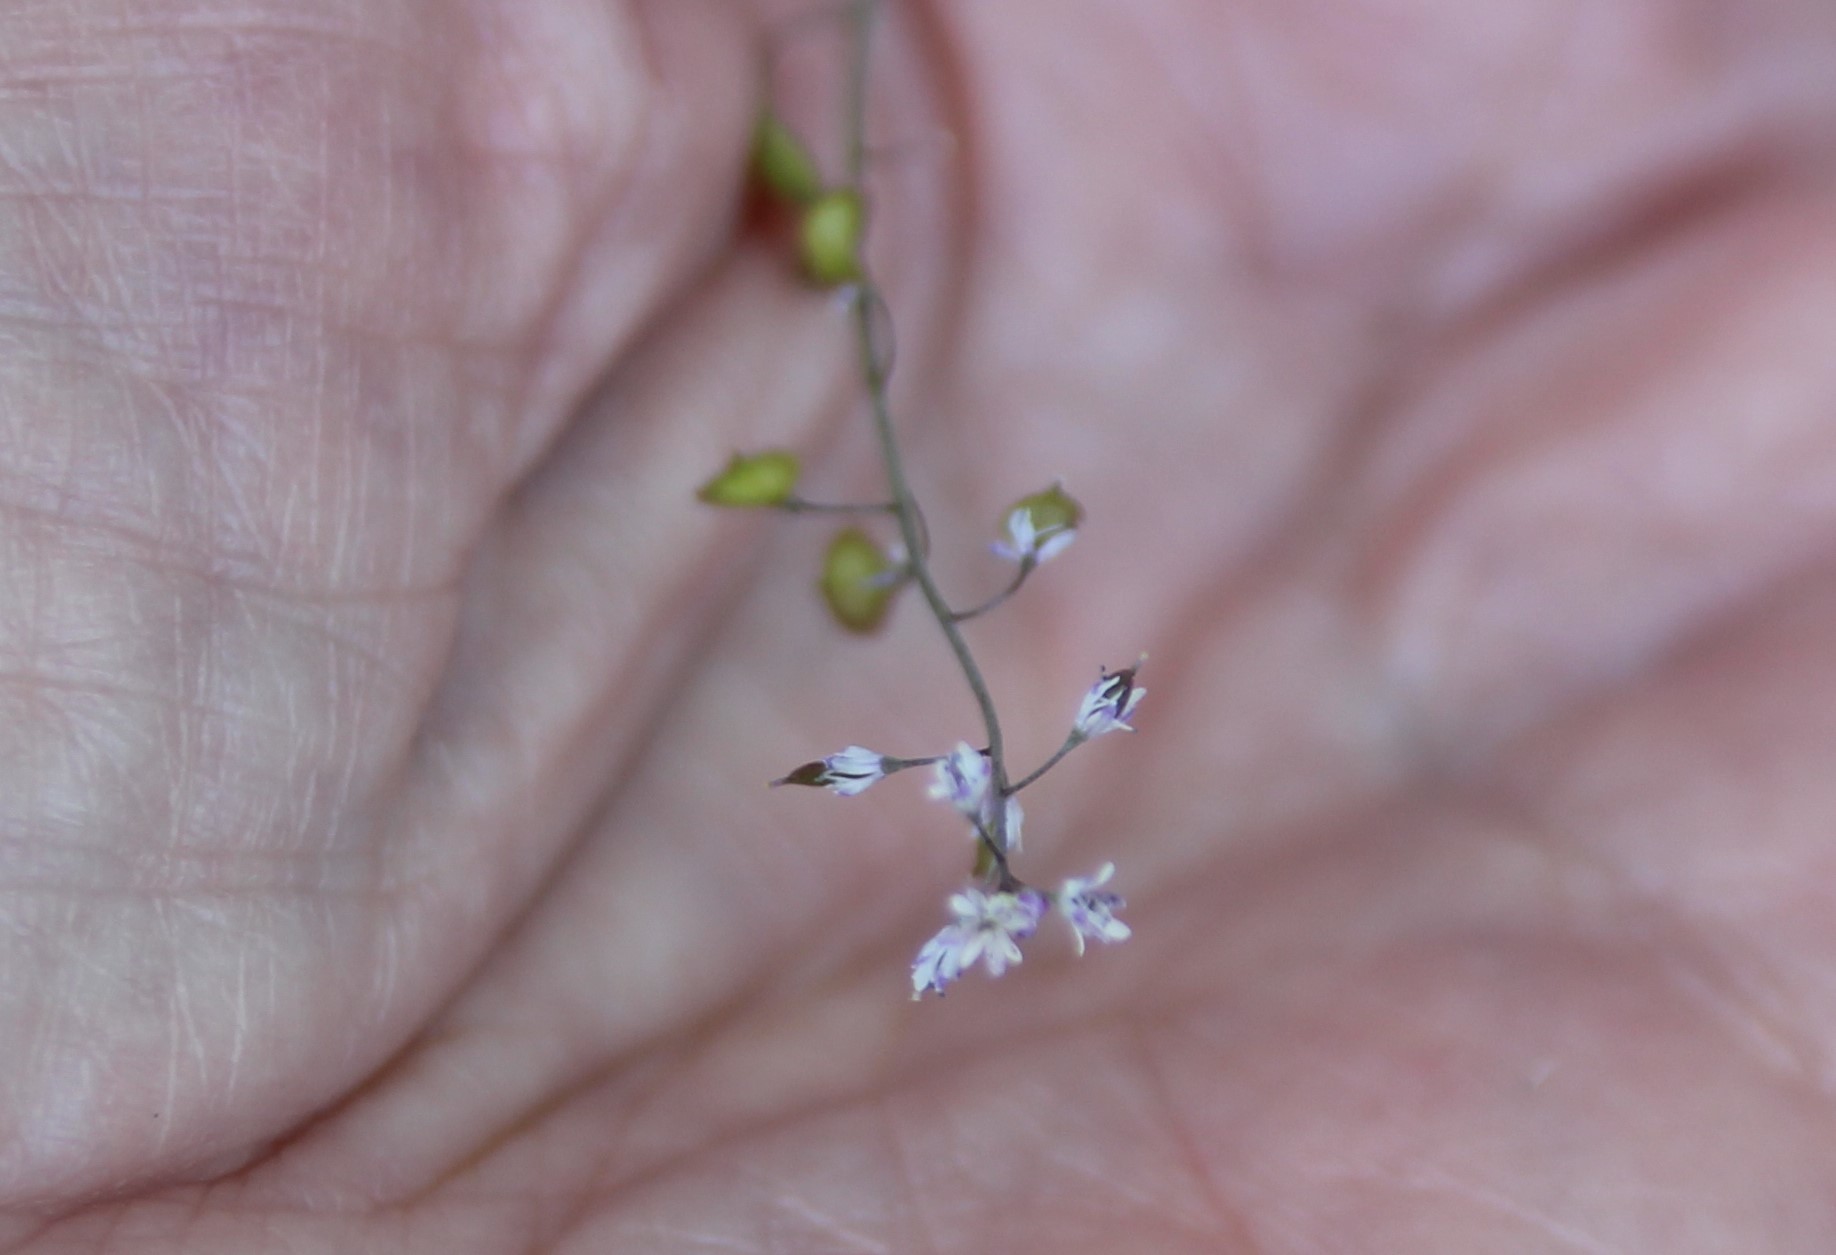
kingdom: Plantae
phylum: Tracheophyta
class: Magnoliopsida
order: Brassicales
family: Brassicaceae
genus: Thysanocarpus
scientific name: Thysanocarpus laciniatus
